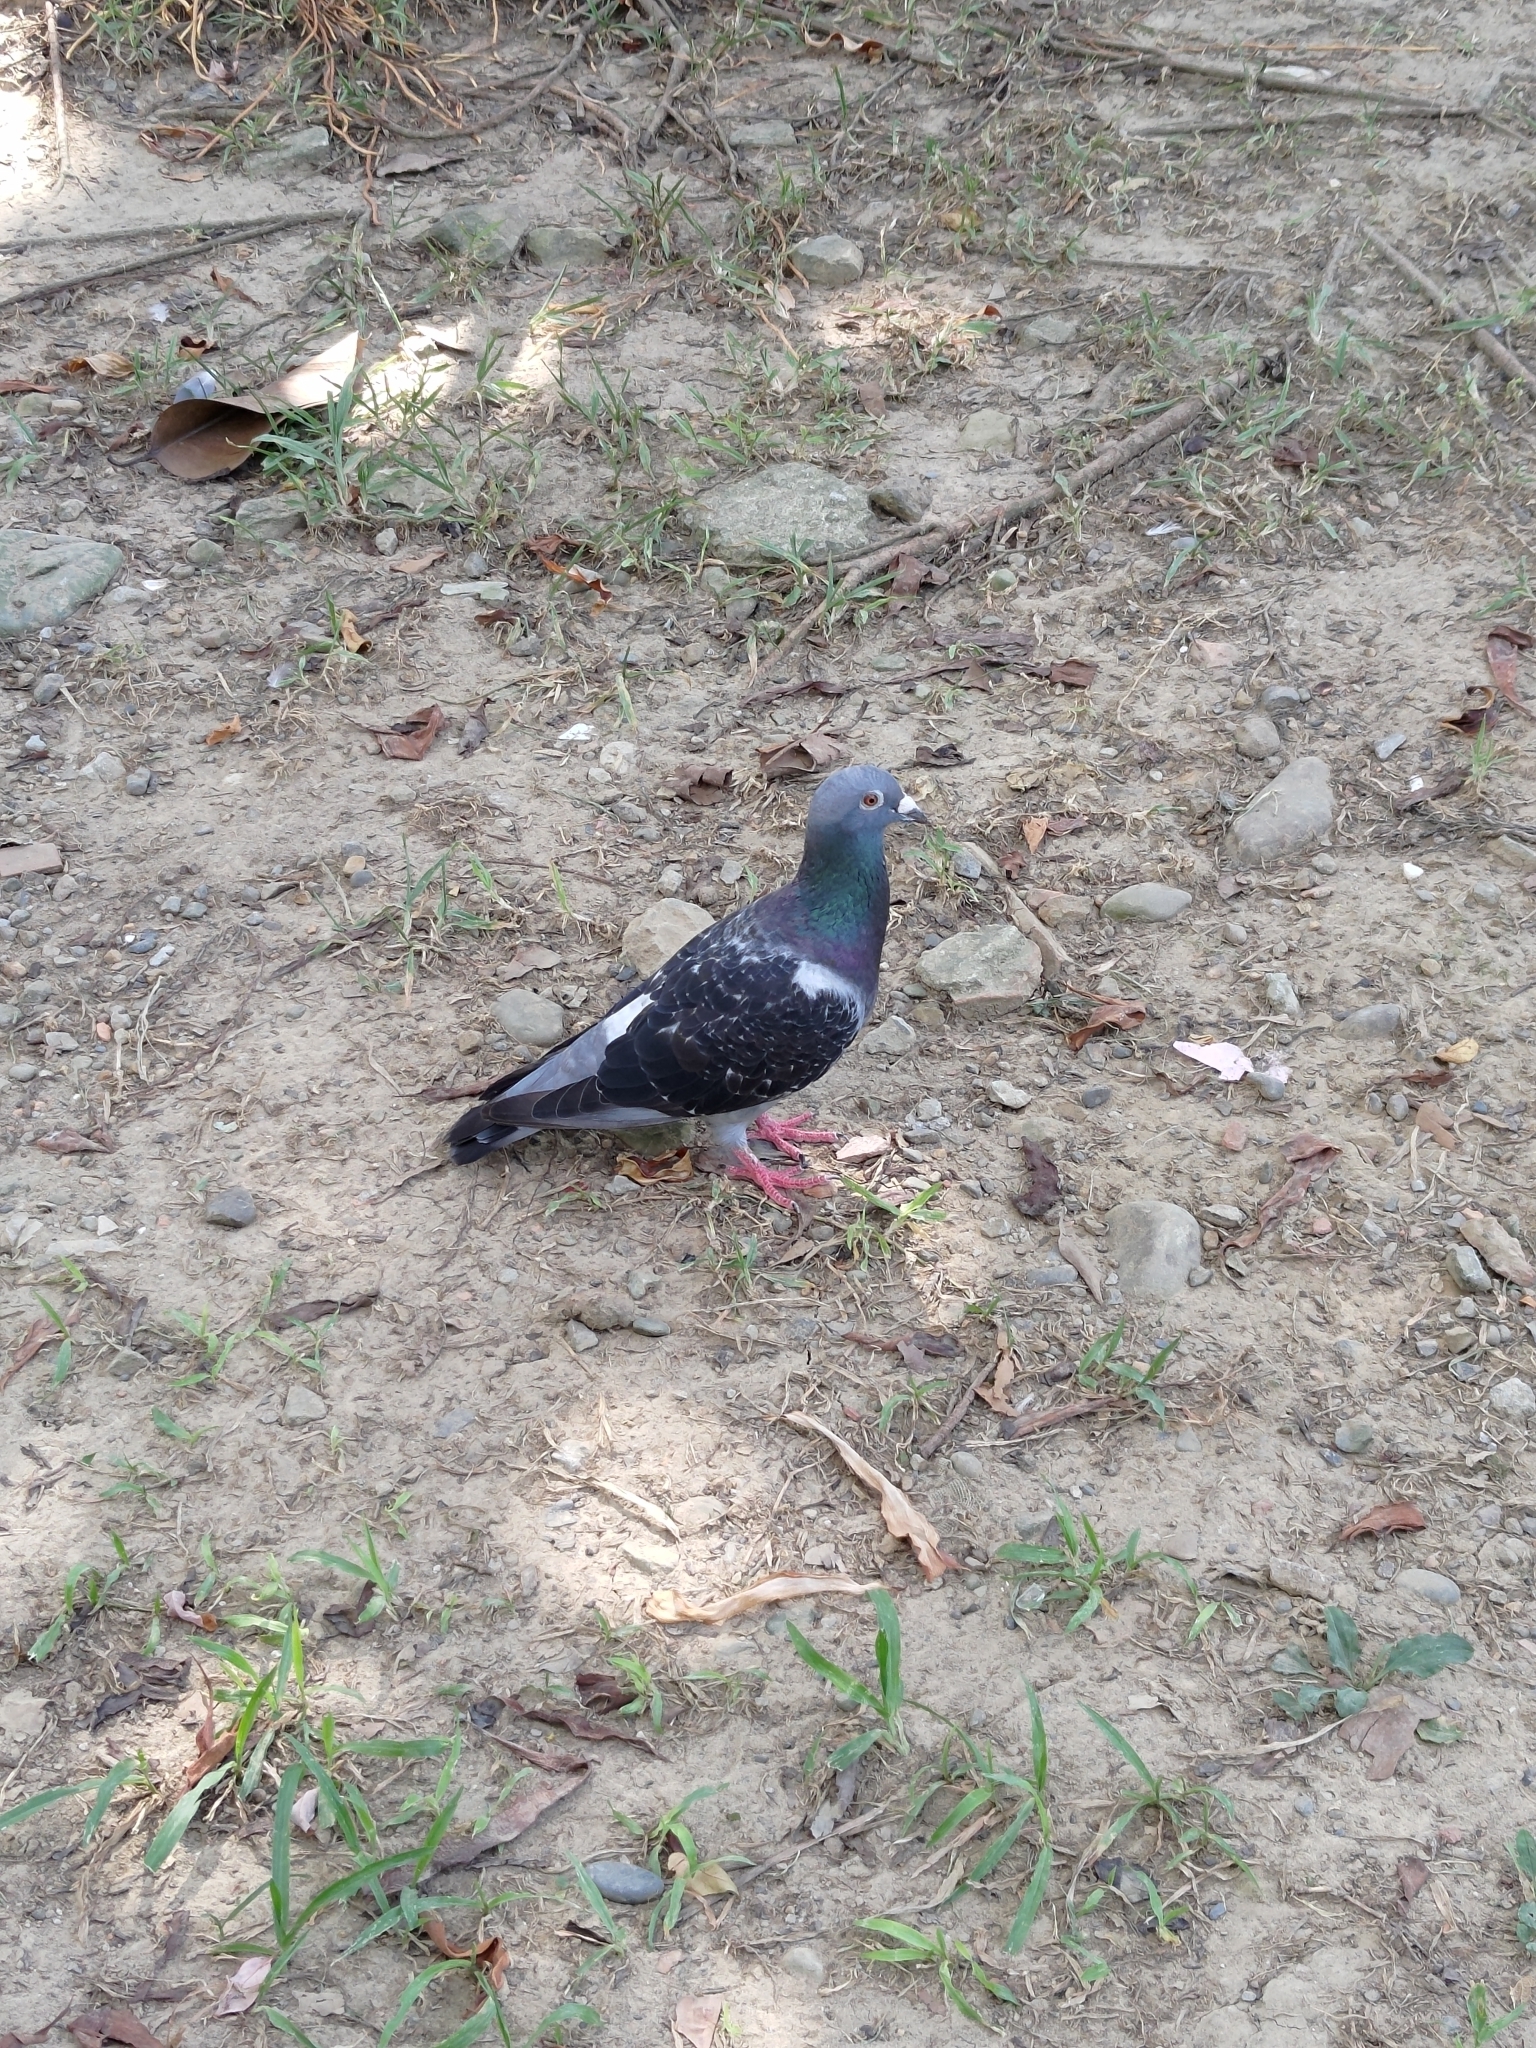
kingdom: Animalia
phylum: Chordata
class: Aves
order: Columbiformes
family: Columbidae
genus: Columba
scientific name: Columba livia
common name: Rock pigeon
